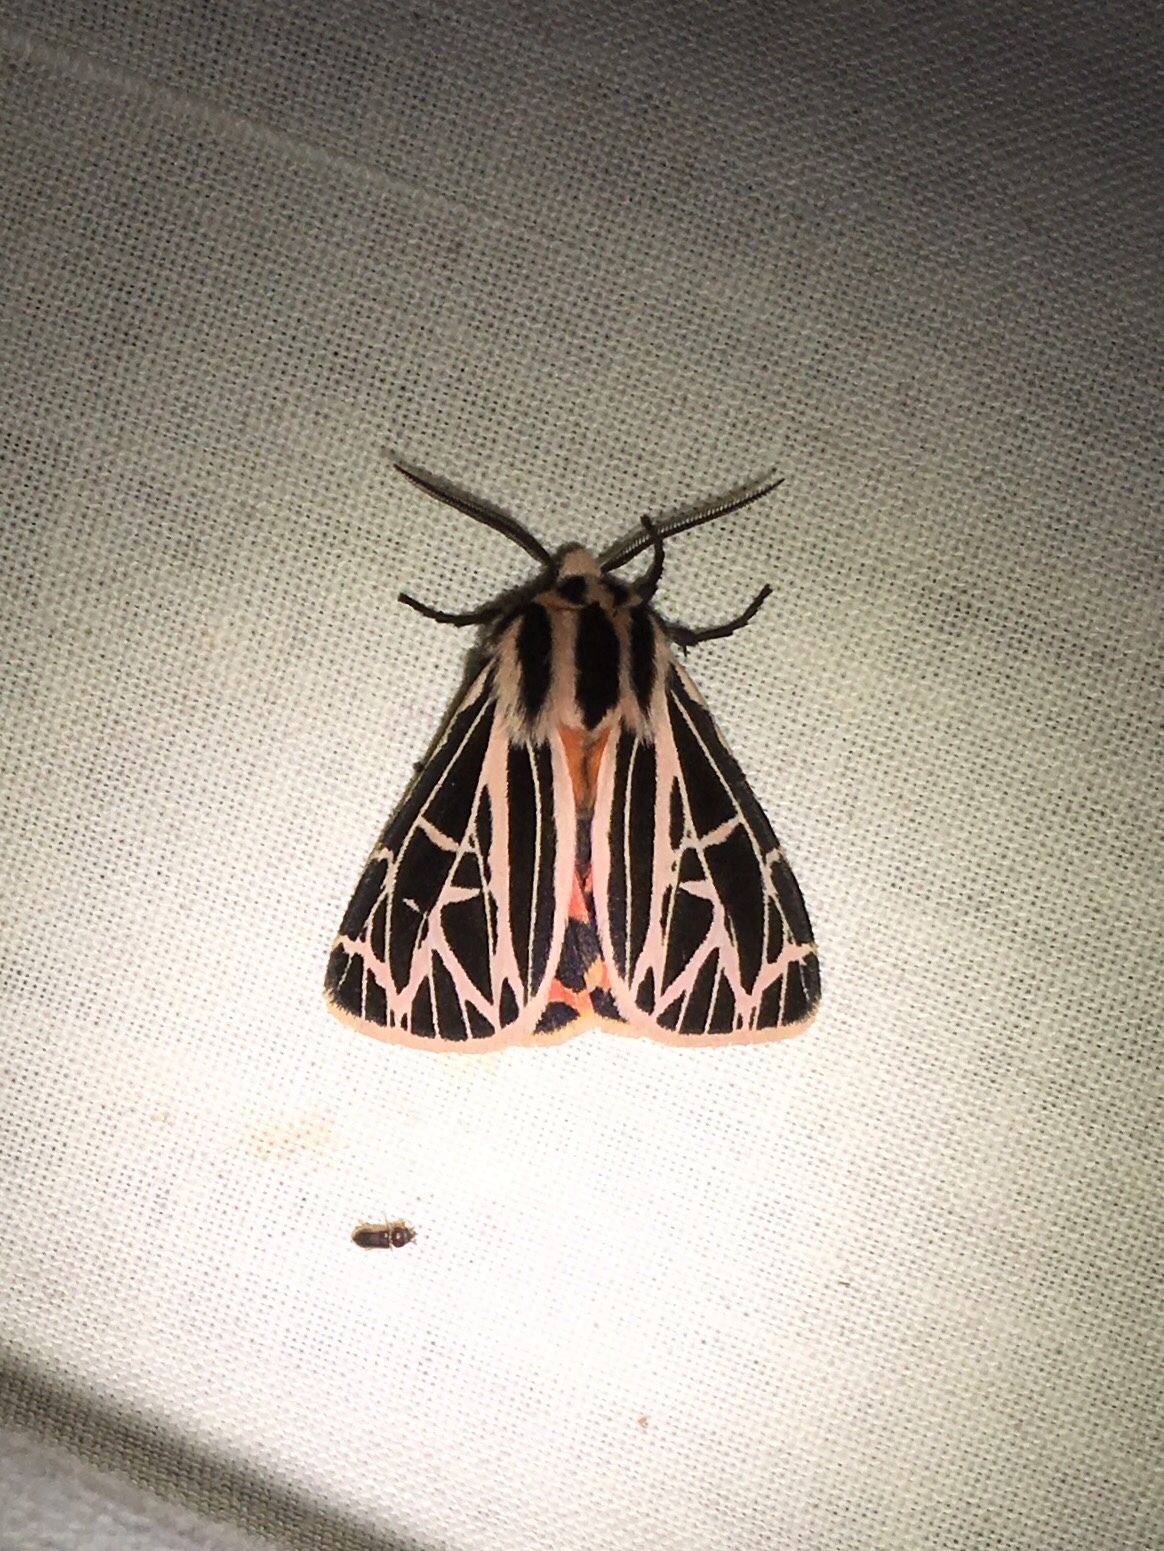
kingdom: Animalia
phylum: Arthropoda
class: Insecta
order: Lepidoptera
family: Erebidae
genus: Grammia
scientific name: Grammia parthenice
